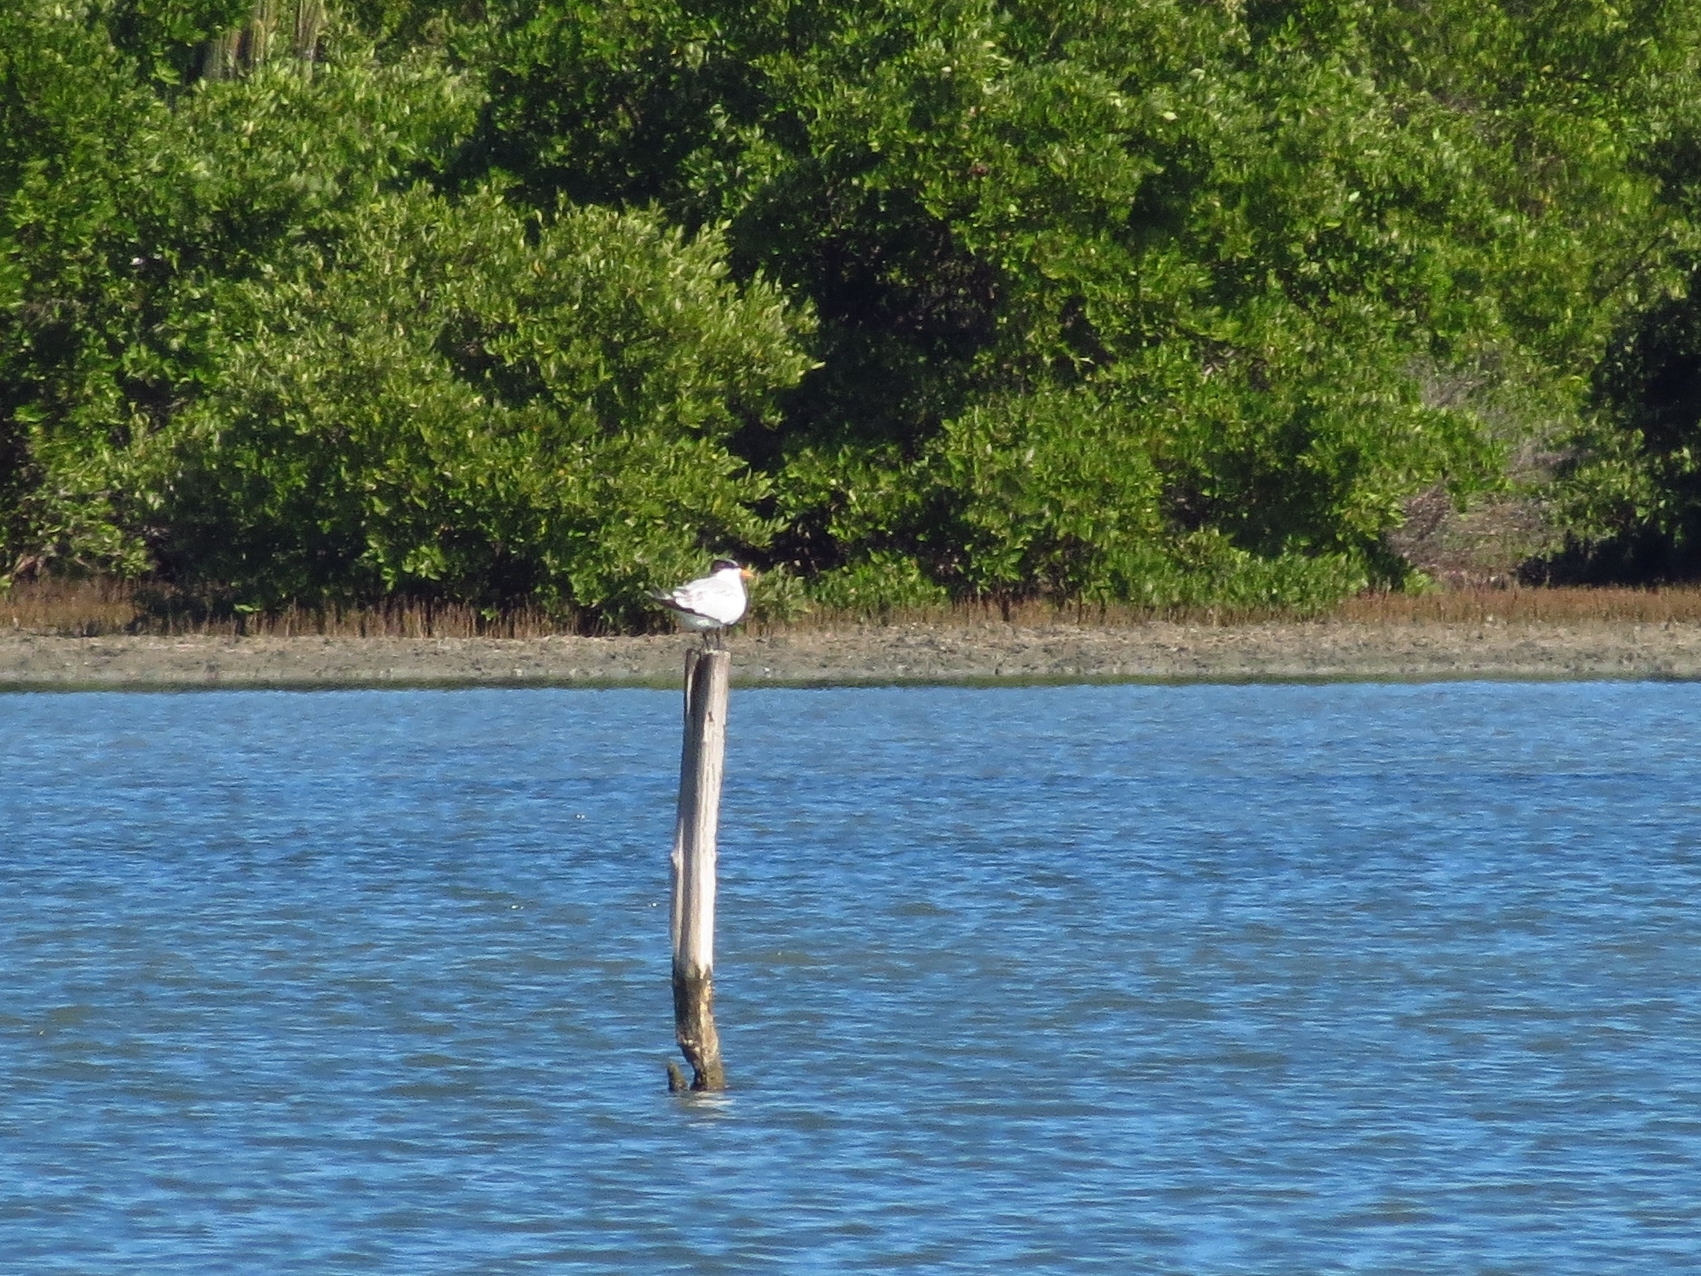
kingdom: Animalia
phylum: Chordata
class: Aves
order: Charadriiformes
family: Laridae
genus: Thalasseus
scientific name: Thalasseus maximus
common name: Royal tern
